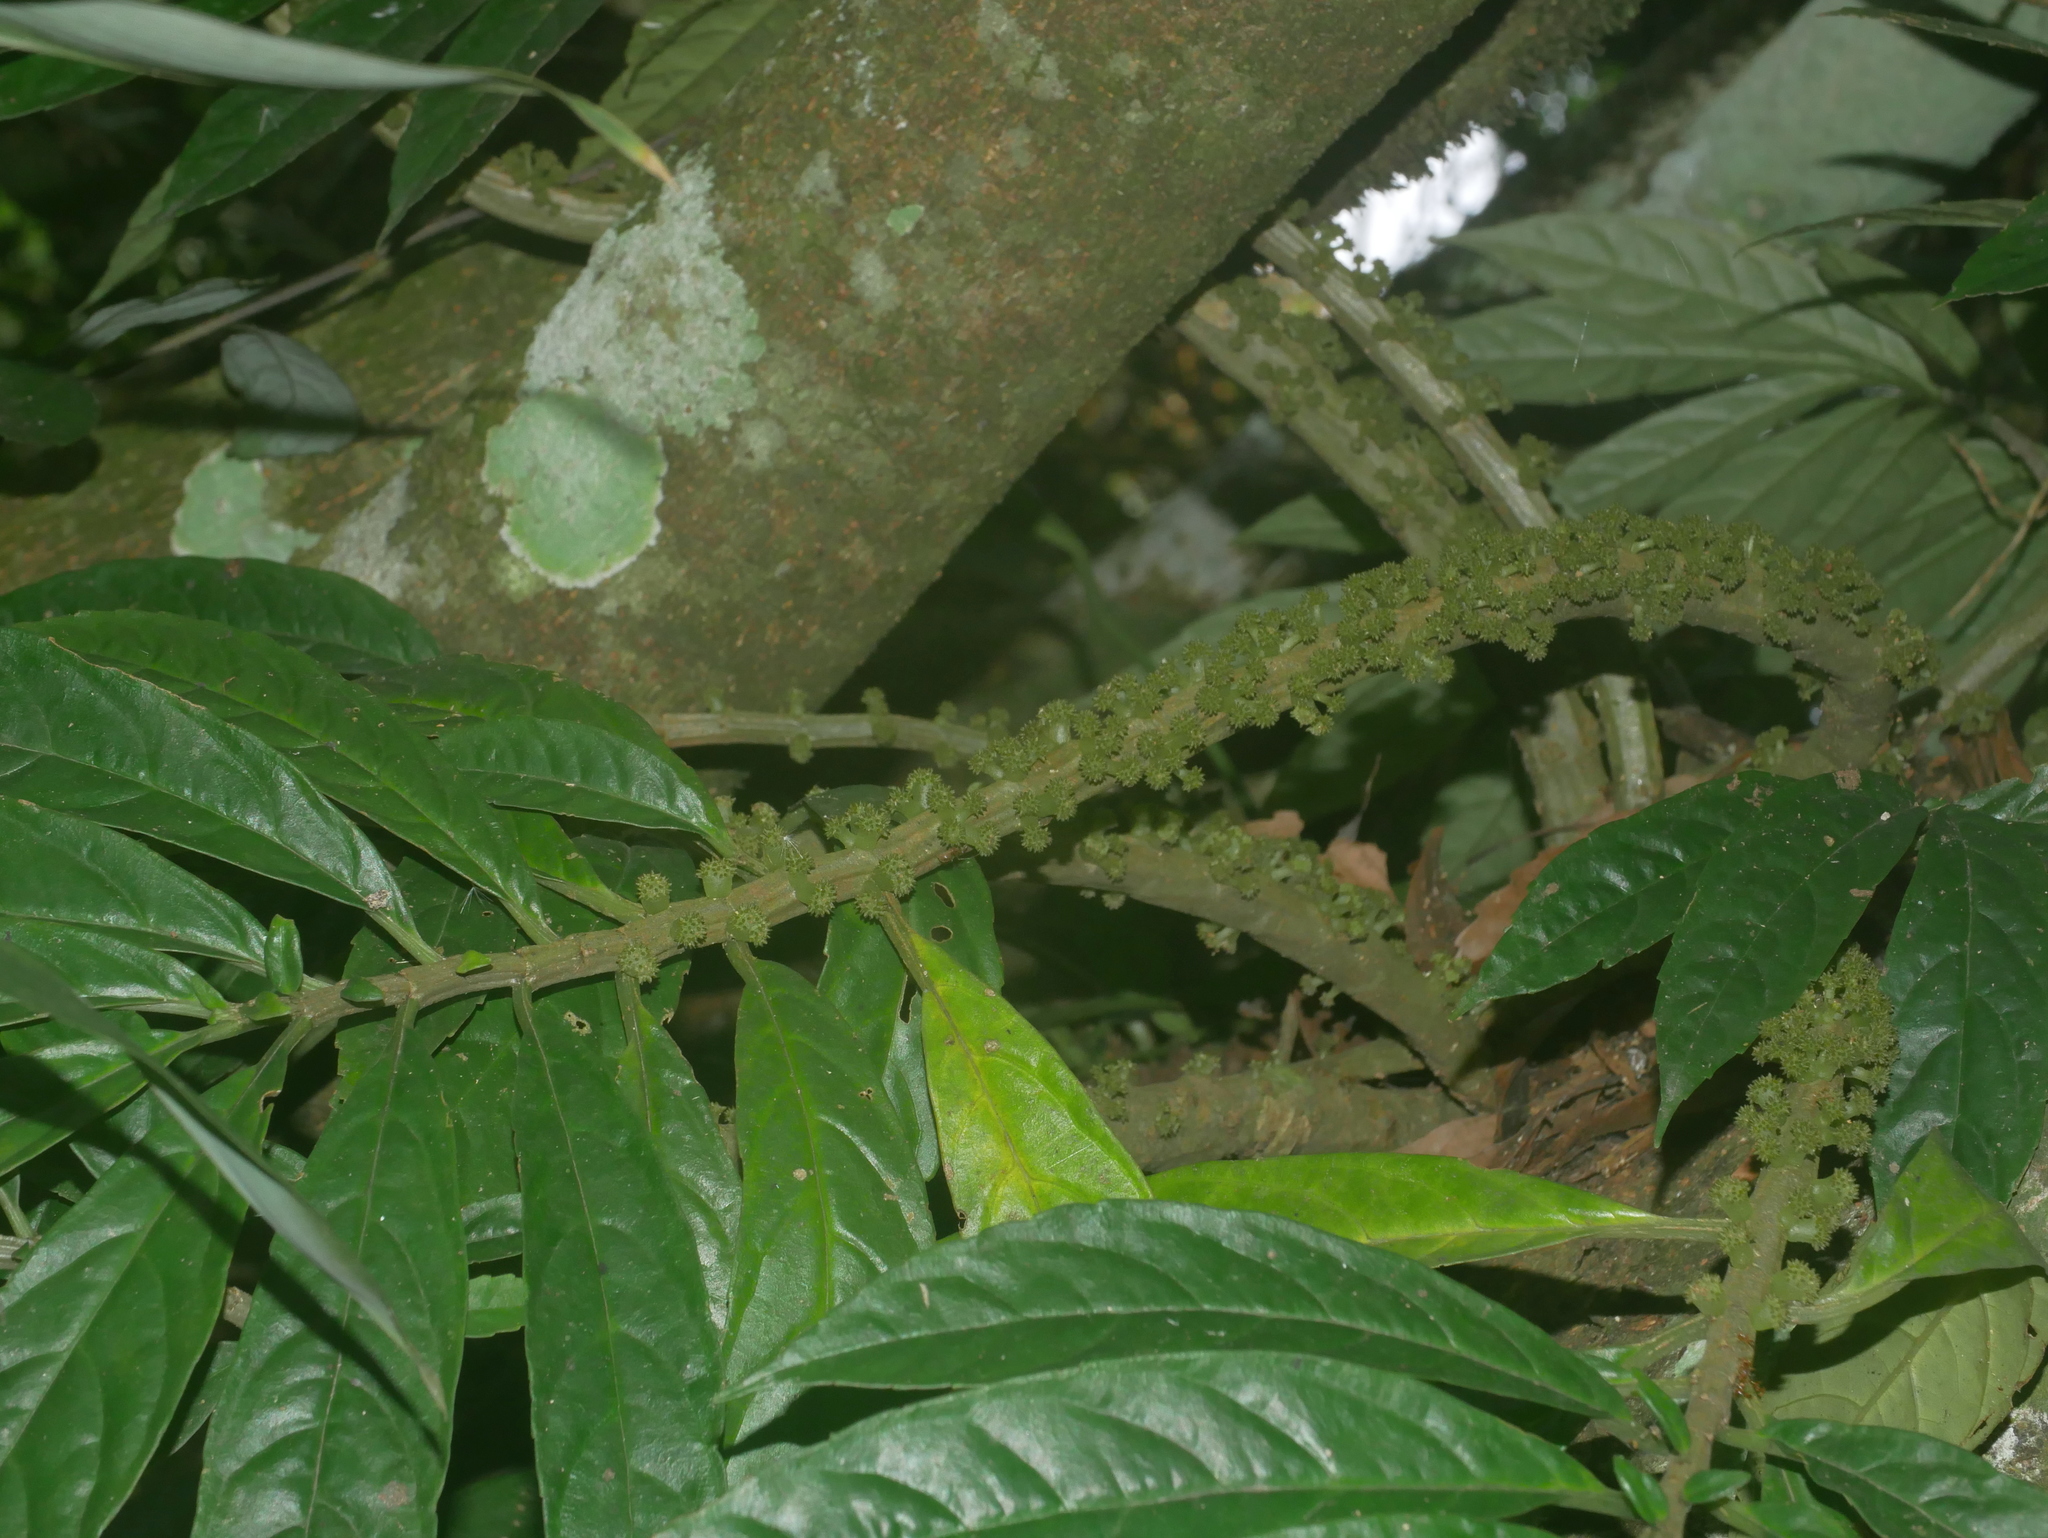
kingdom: Plantae
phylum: Tracheophyta
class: Magnoliopsida
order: Rosales
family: Urticaceae
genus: Procris
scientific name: Procris
